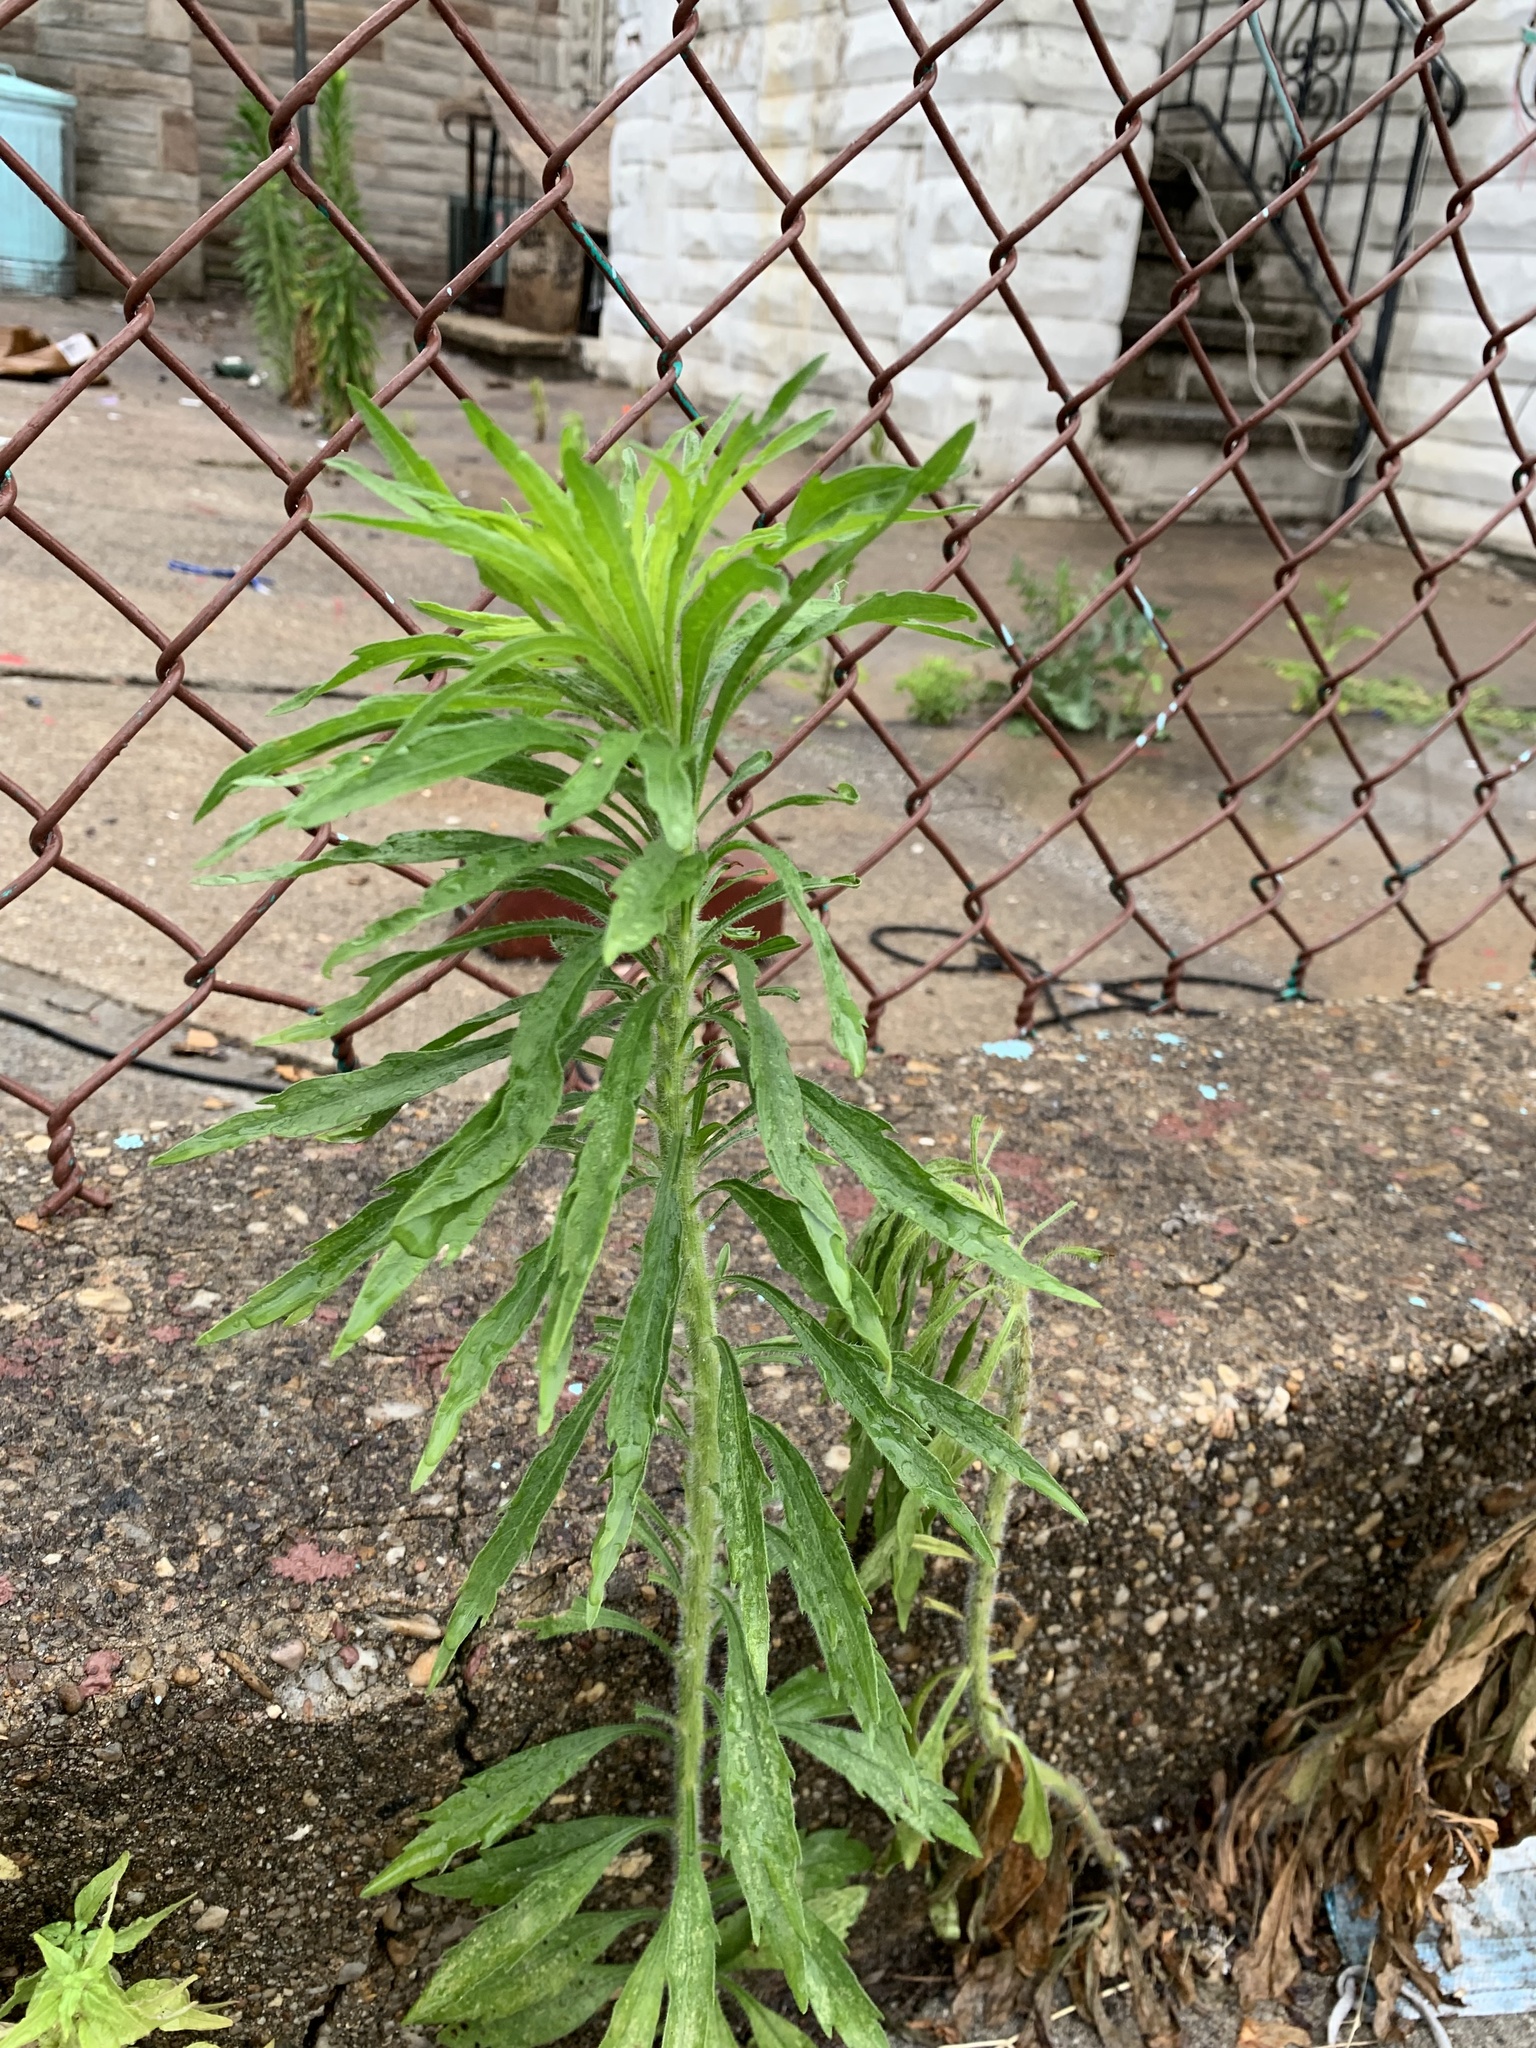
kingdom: Plantae
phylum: Tracheophyta
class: Magnoliopsida
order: Asterales
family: Asteraceae
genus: Erigeron
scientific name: Erigeron canadensis
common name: Canadian fleabane
